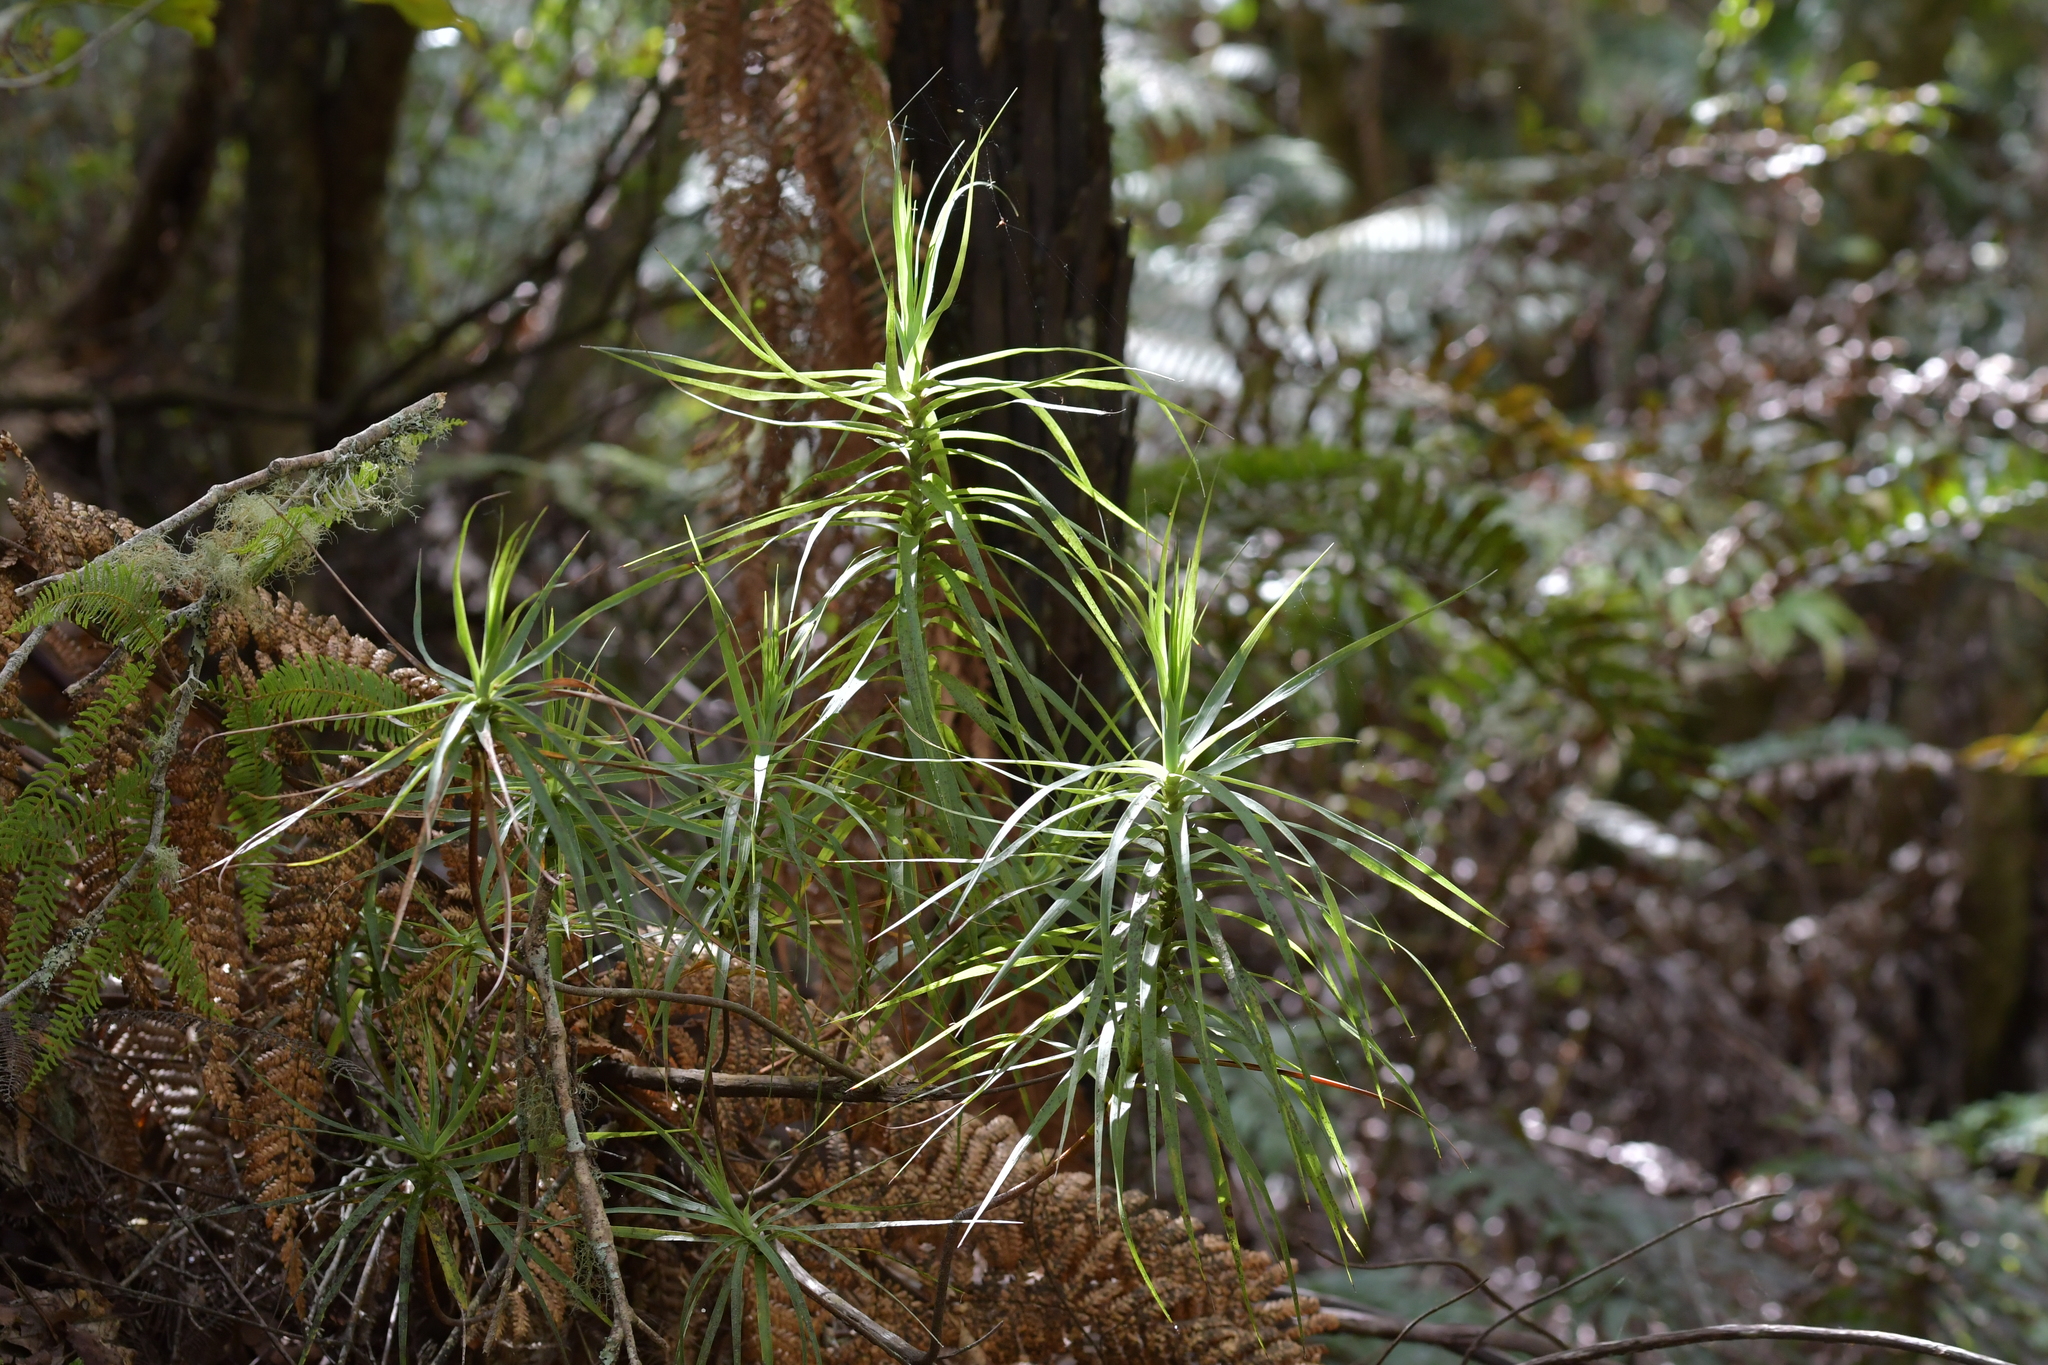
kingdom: Plantae
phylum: Tracheophyta
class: Magnoliopsida
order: Ericales
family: Ericaceae
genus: Dracophyllum
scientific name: Dracophyllum strictum
